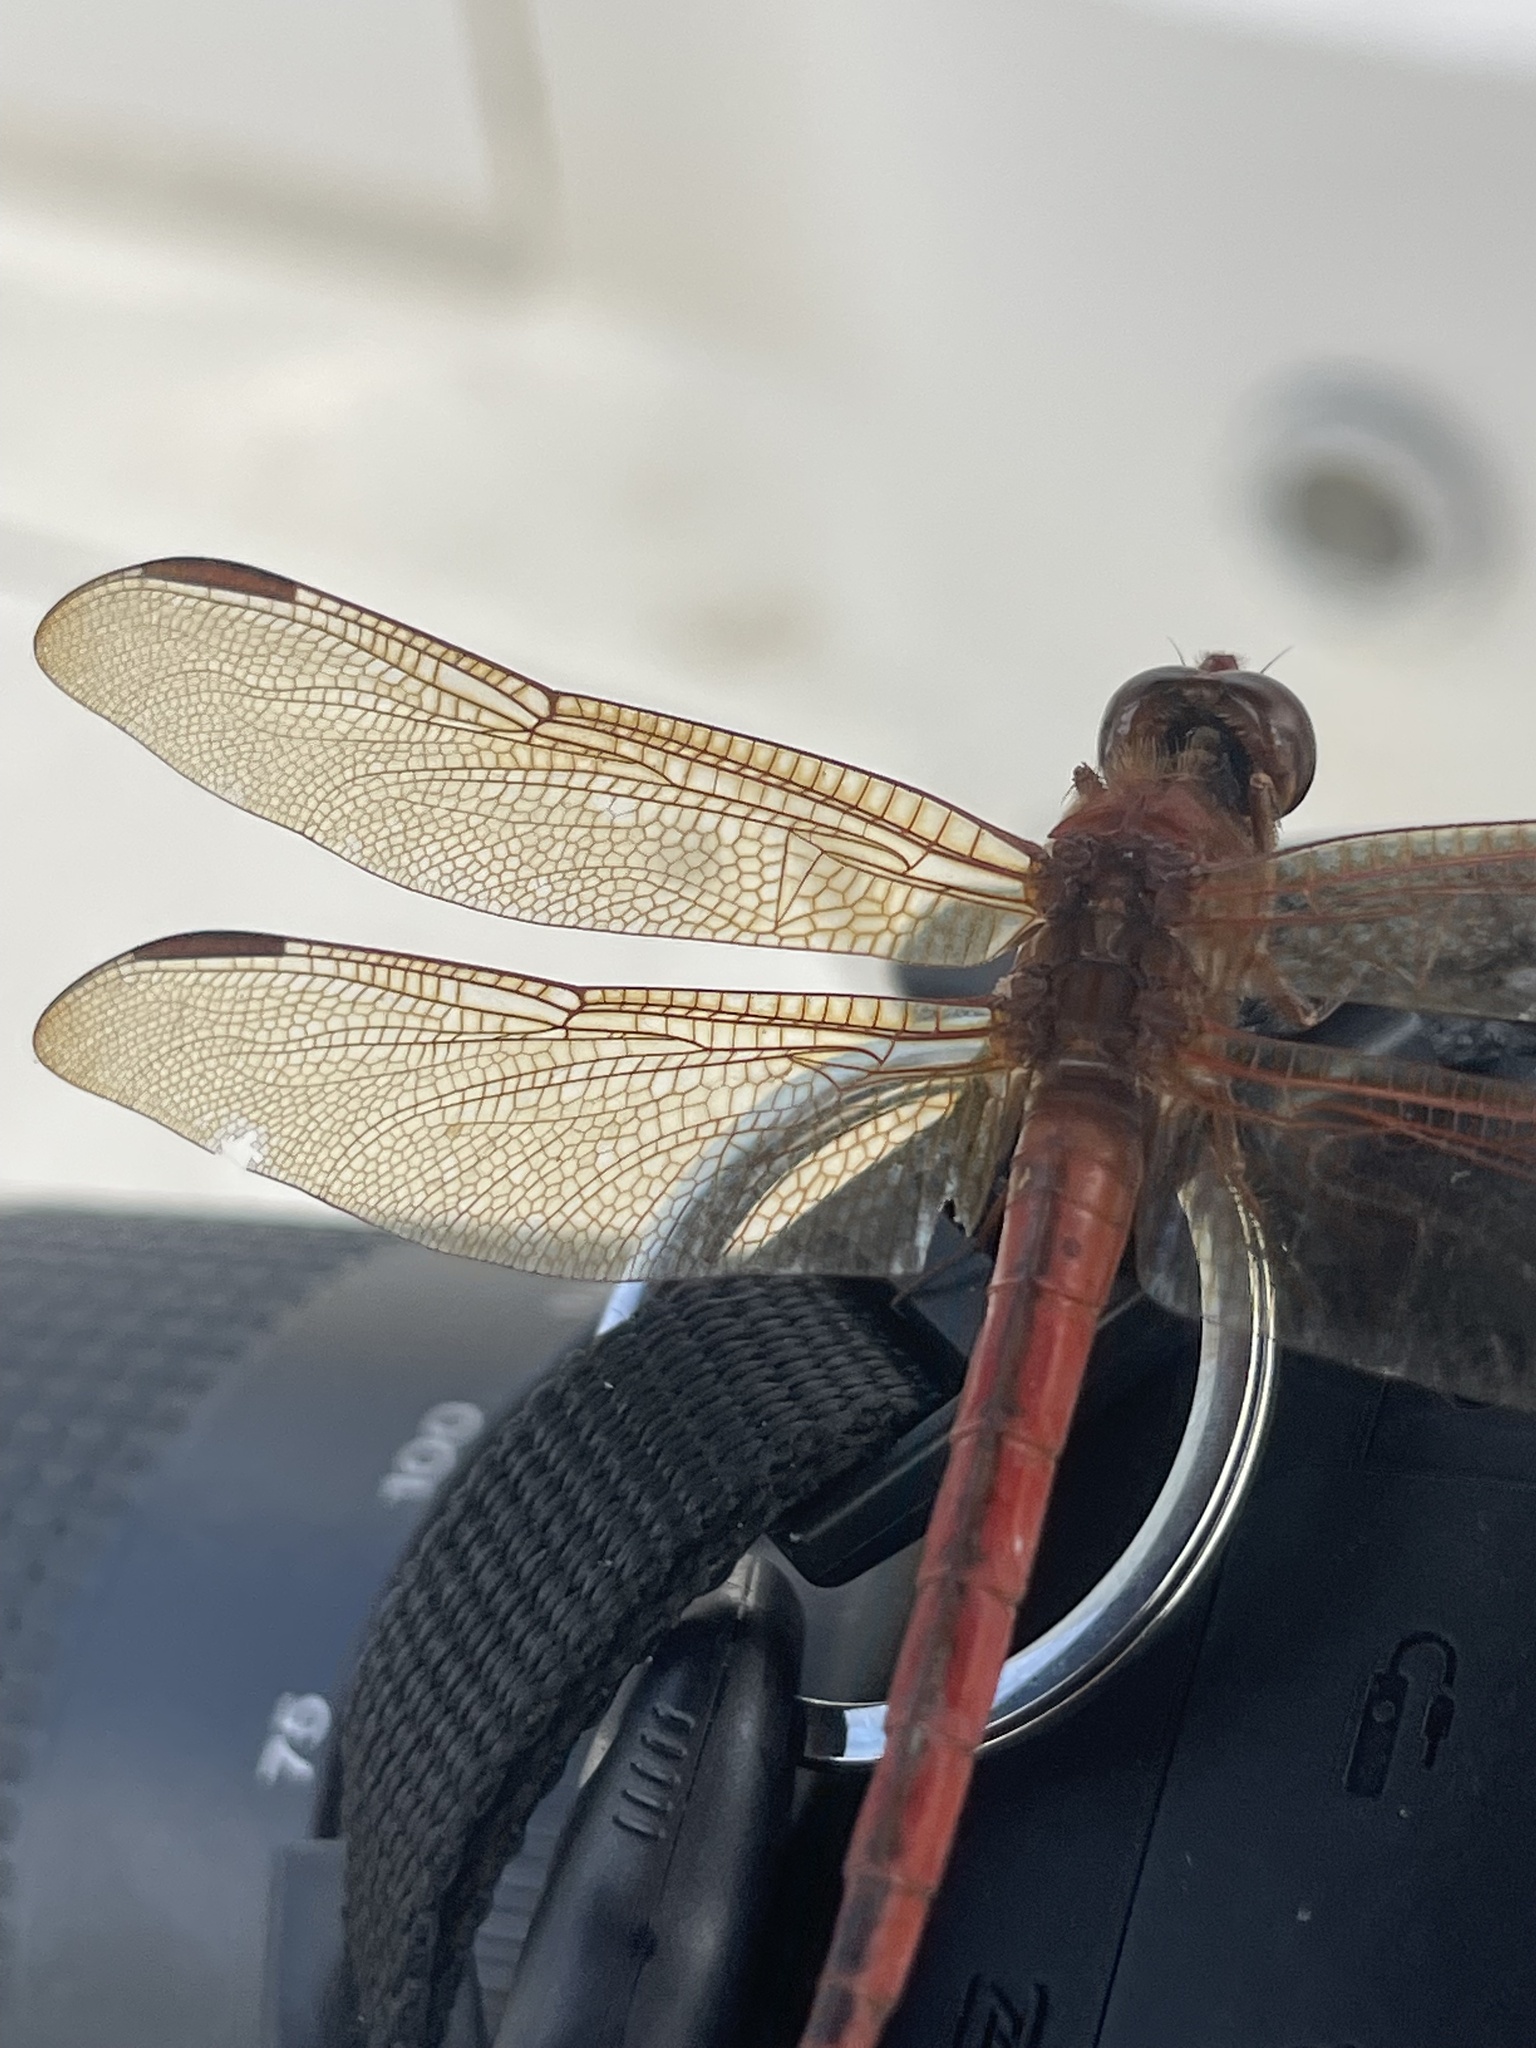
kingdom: Animalia
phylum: Arthropoda
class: Insecta
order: Odonata
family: Libellulidae
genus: Libellula
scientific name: Libellula needhami
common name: Needham's skimmer
